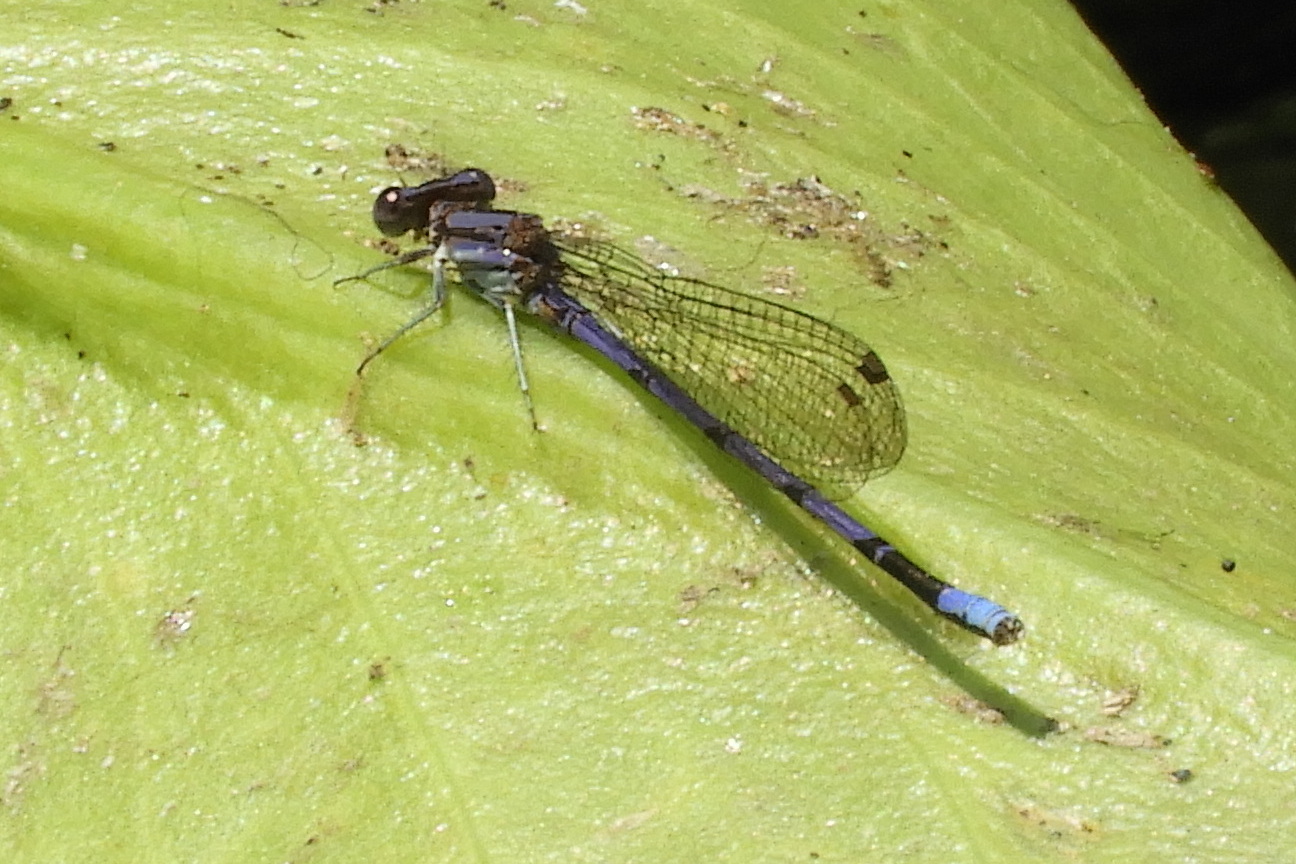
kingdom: Animalia
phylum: Arthropoda
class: Insecta
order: Odonata
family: Coenagrionidae
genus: Argia
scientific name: Argia fumipennis
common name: Variable dancer
